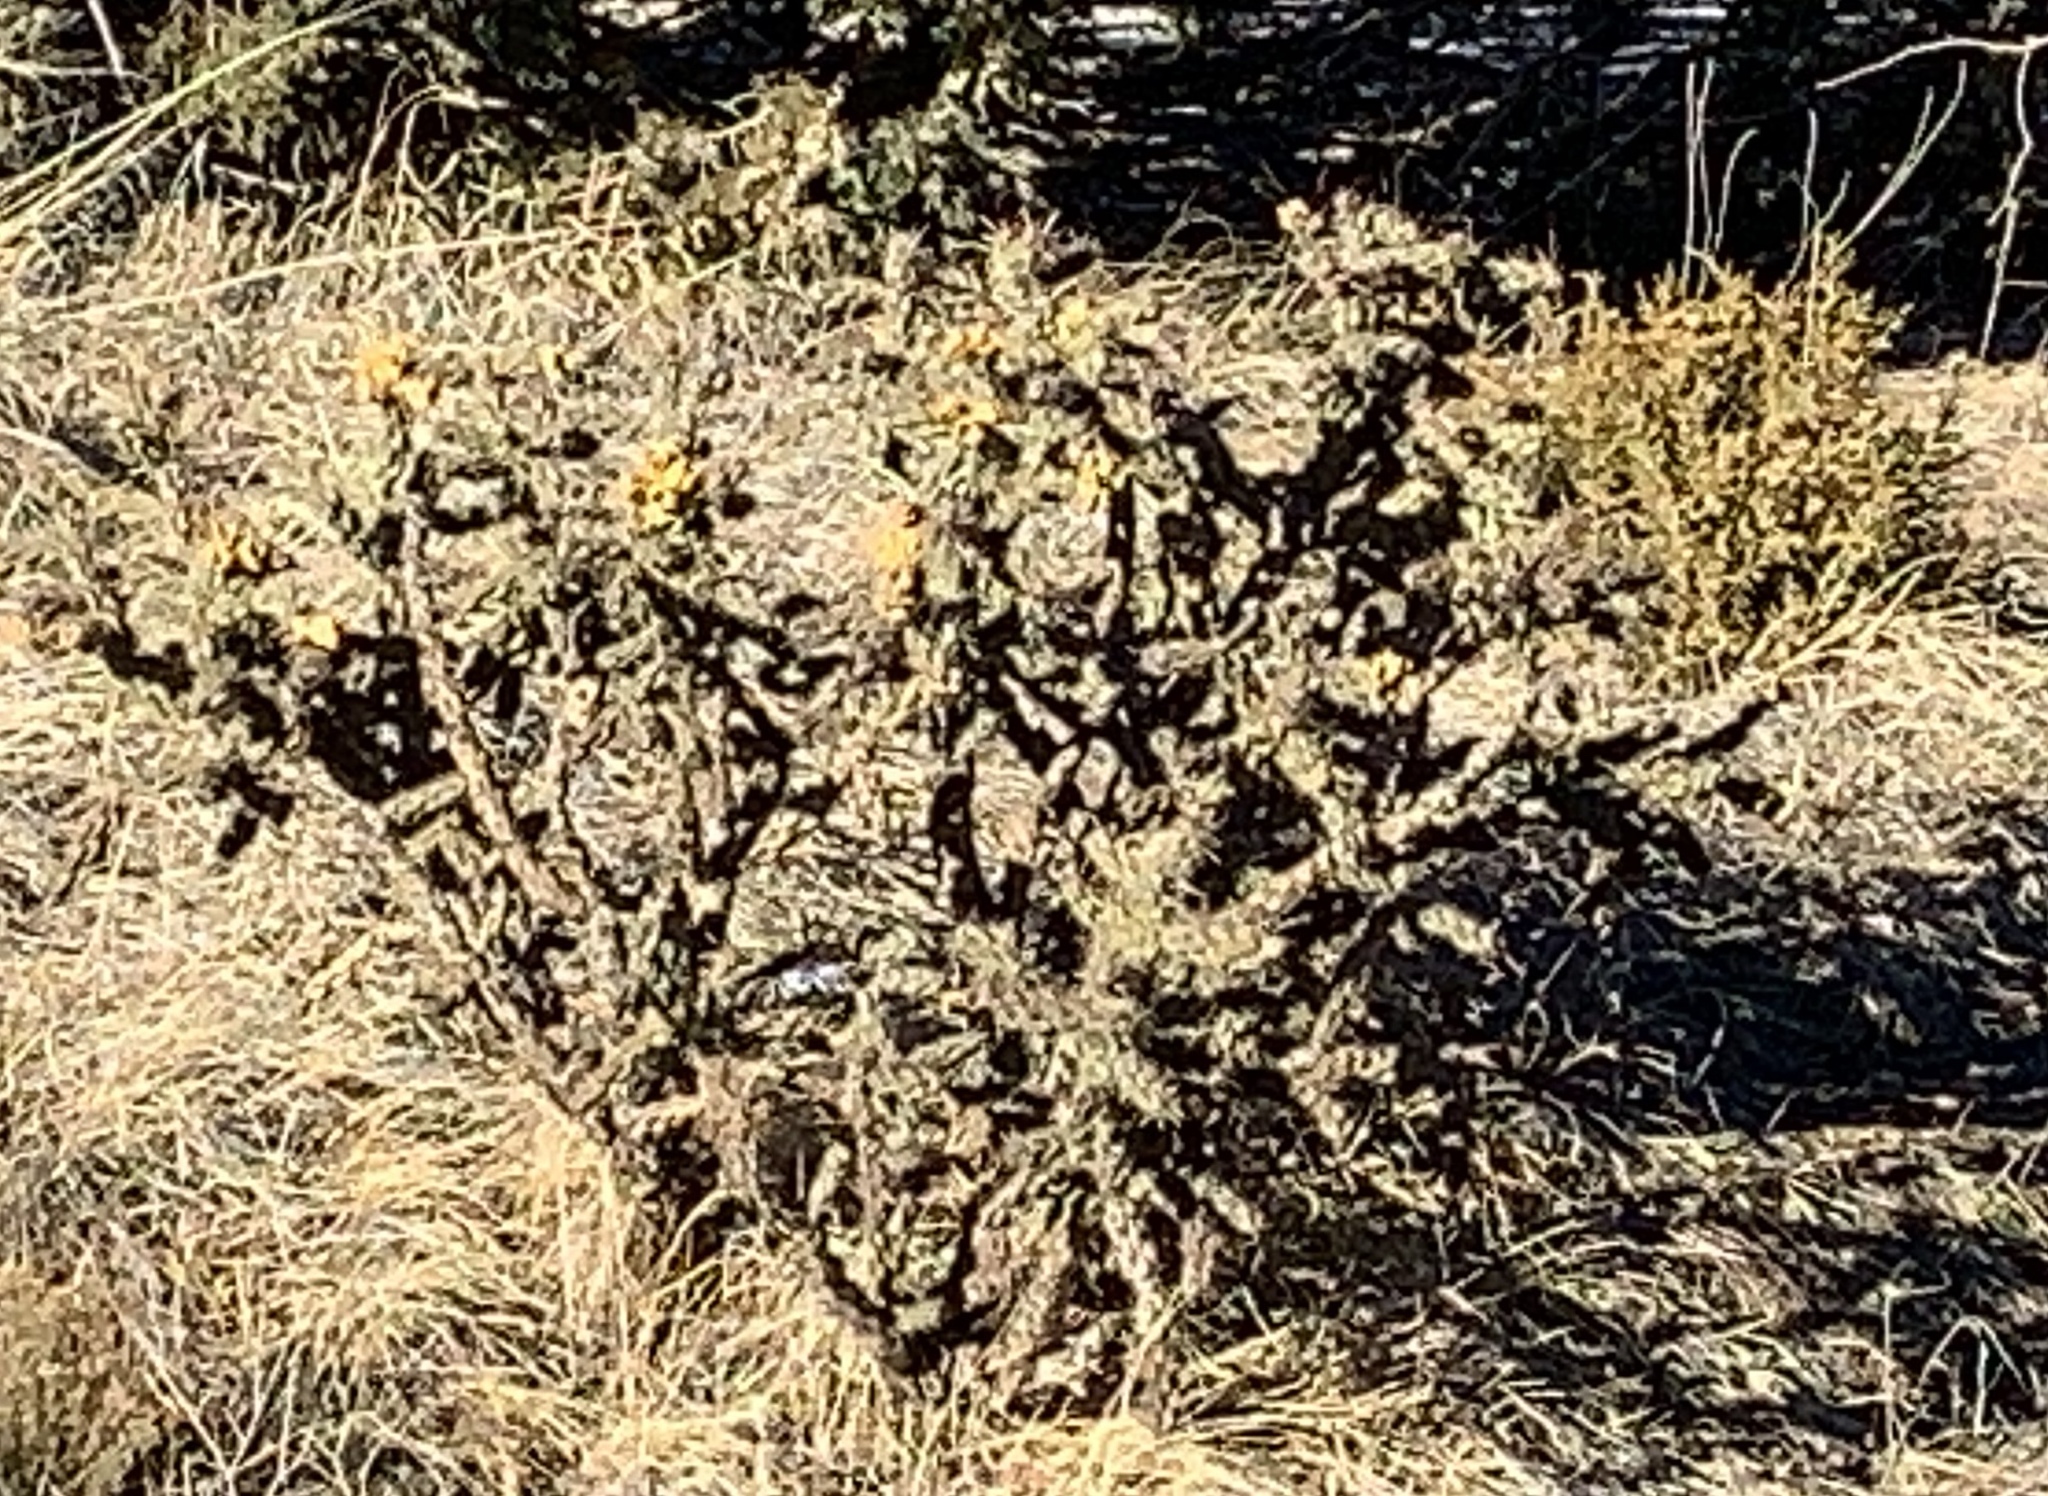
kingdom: Plantae
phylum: Tracheophyta
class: Magnoliopsida
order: Caryophyllales
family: Cactaceae
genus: Cylindropuntia
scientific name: Cylindropuntia imbricata
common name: Candelabrum cactus
